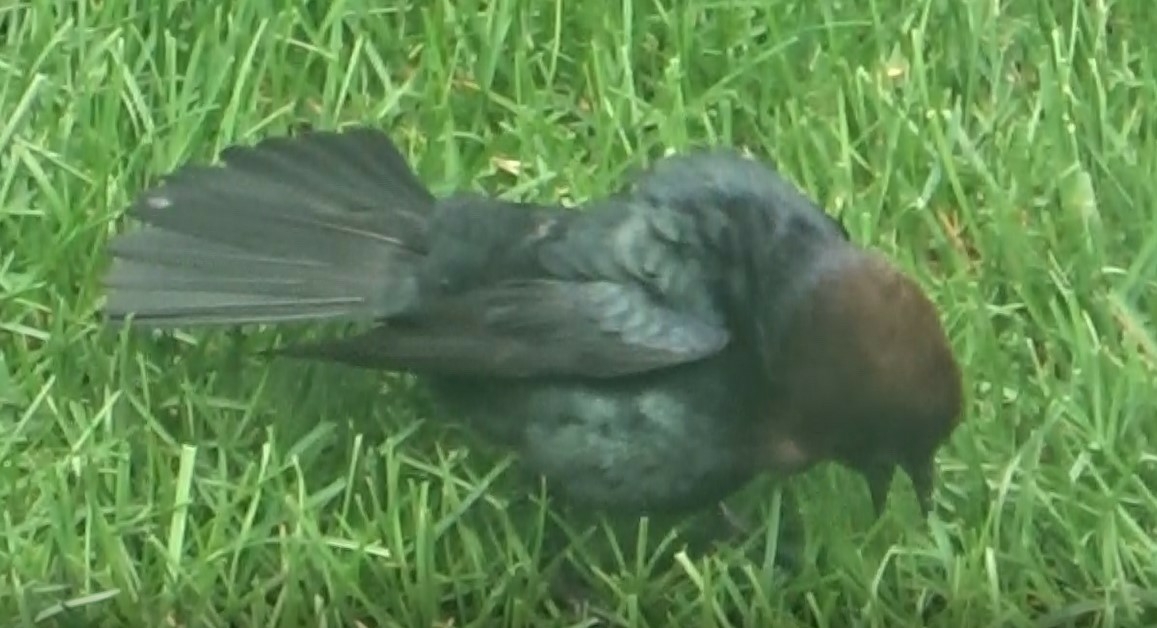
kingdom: Animalia
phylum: Chordata
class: Aves
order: Passeriformes
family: Icteridae
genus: Molothrus
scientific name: Molothrus ater
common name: Brown-headed cowbird
